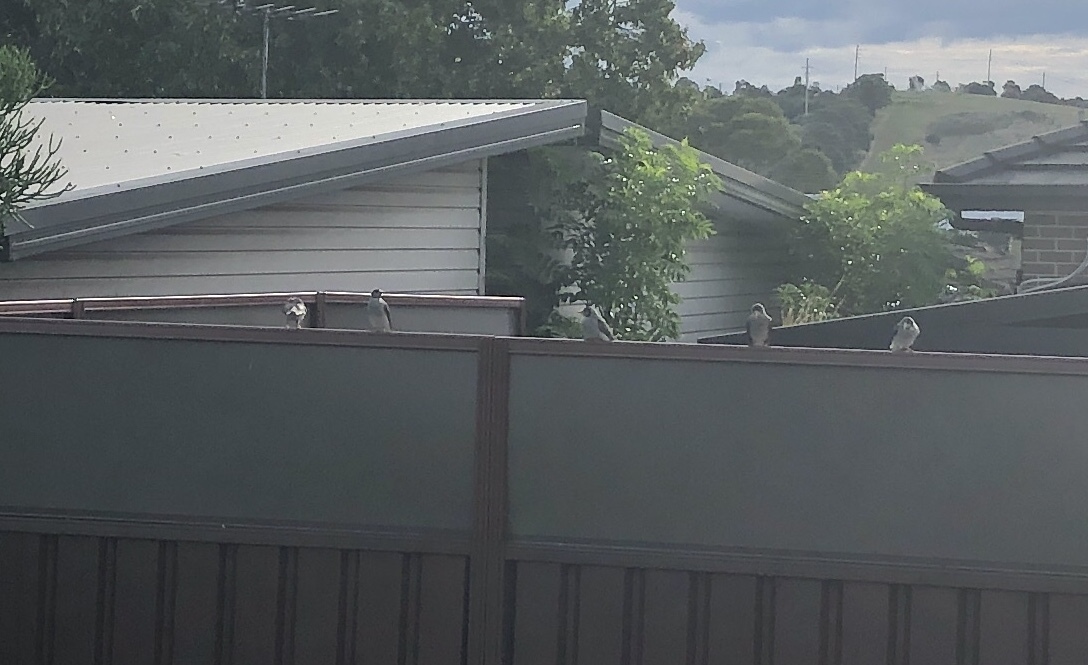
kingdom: Animalia
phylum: Chordata
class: Aves
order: Passeriformes
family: Meliphagidae
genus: Manorina
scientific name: Manorina melanocephala
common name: Noisy miner
